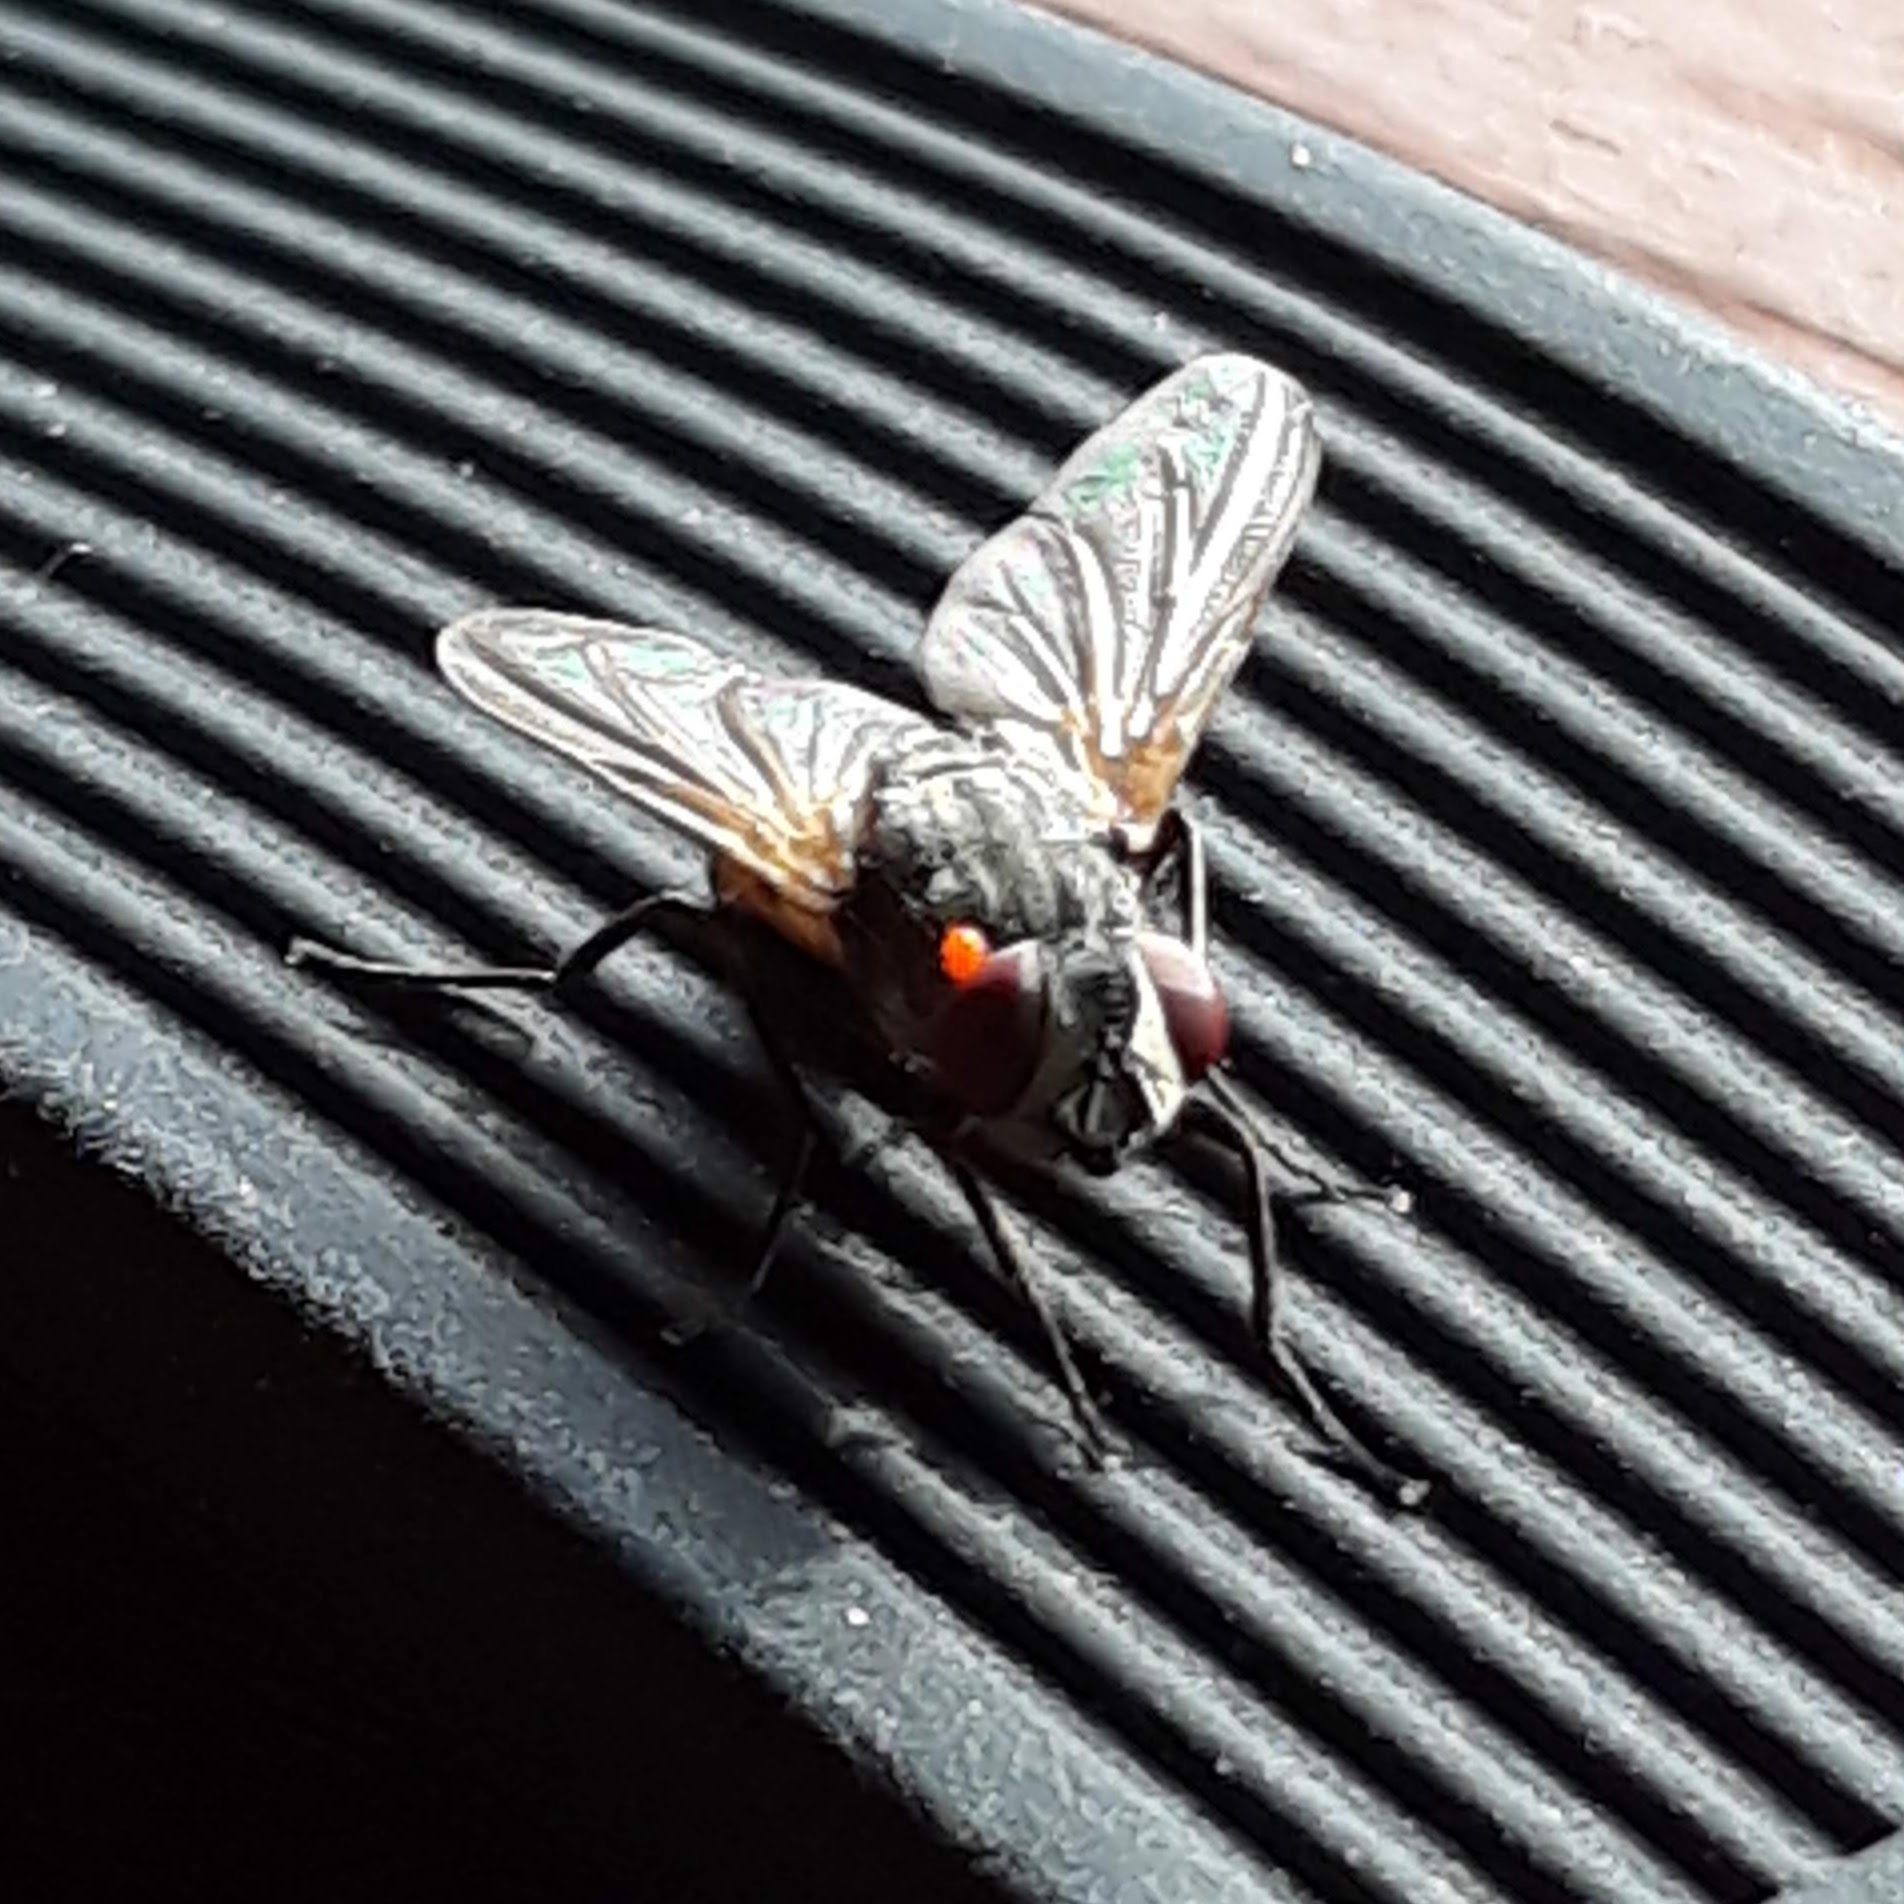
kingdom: Animalia
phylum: Arthropoda
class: Insecta
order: Diptera
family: Muscidae
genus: Musca
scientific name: Musca domestica
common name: House fly
